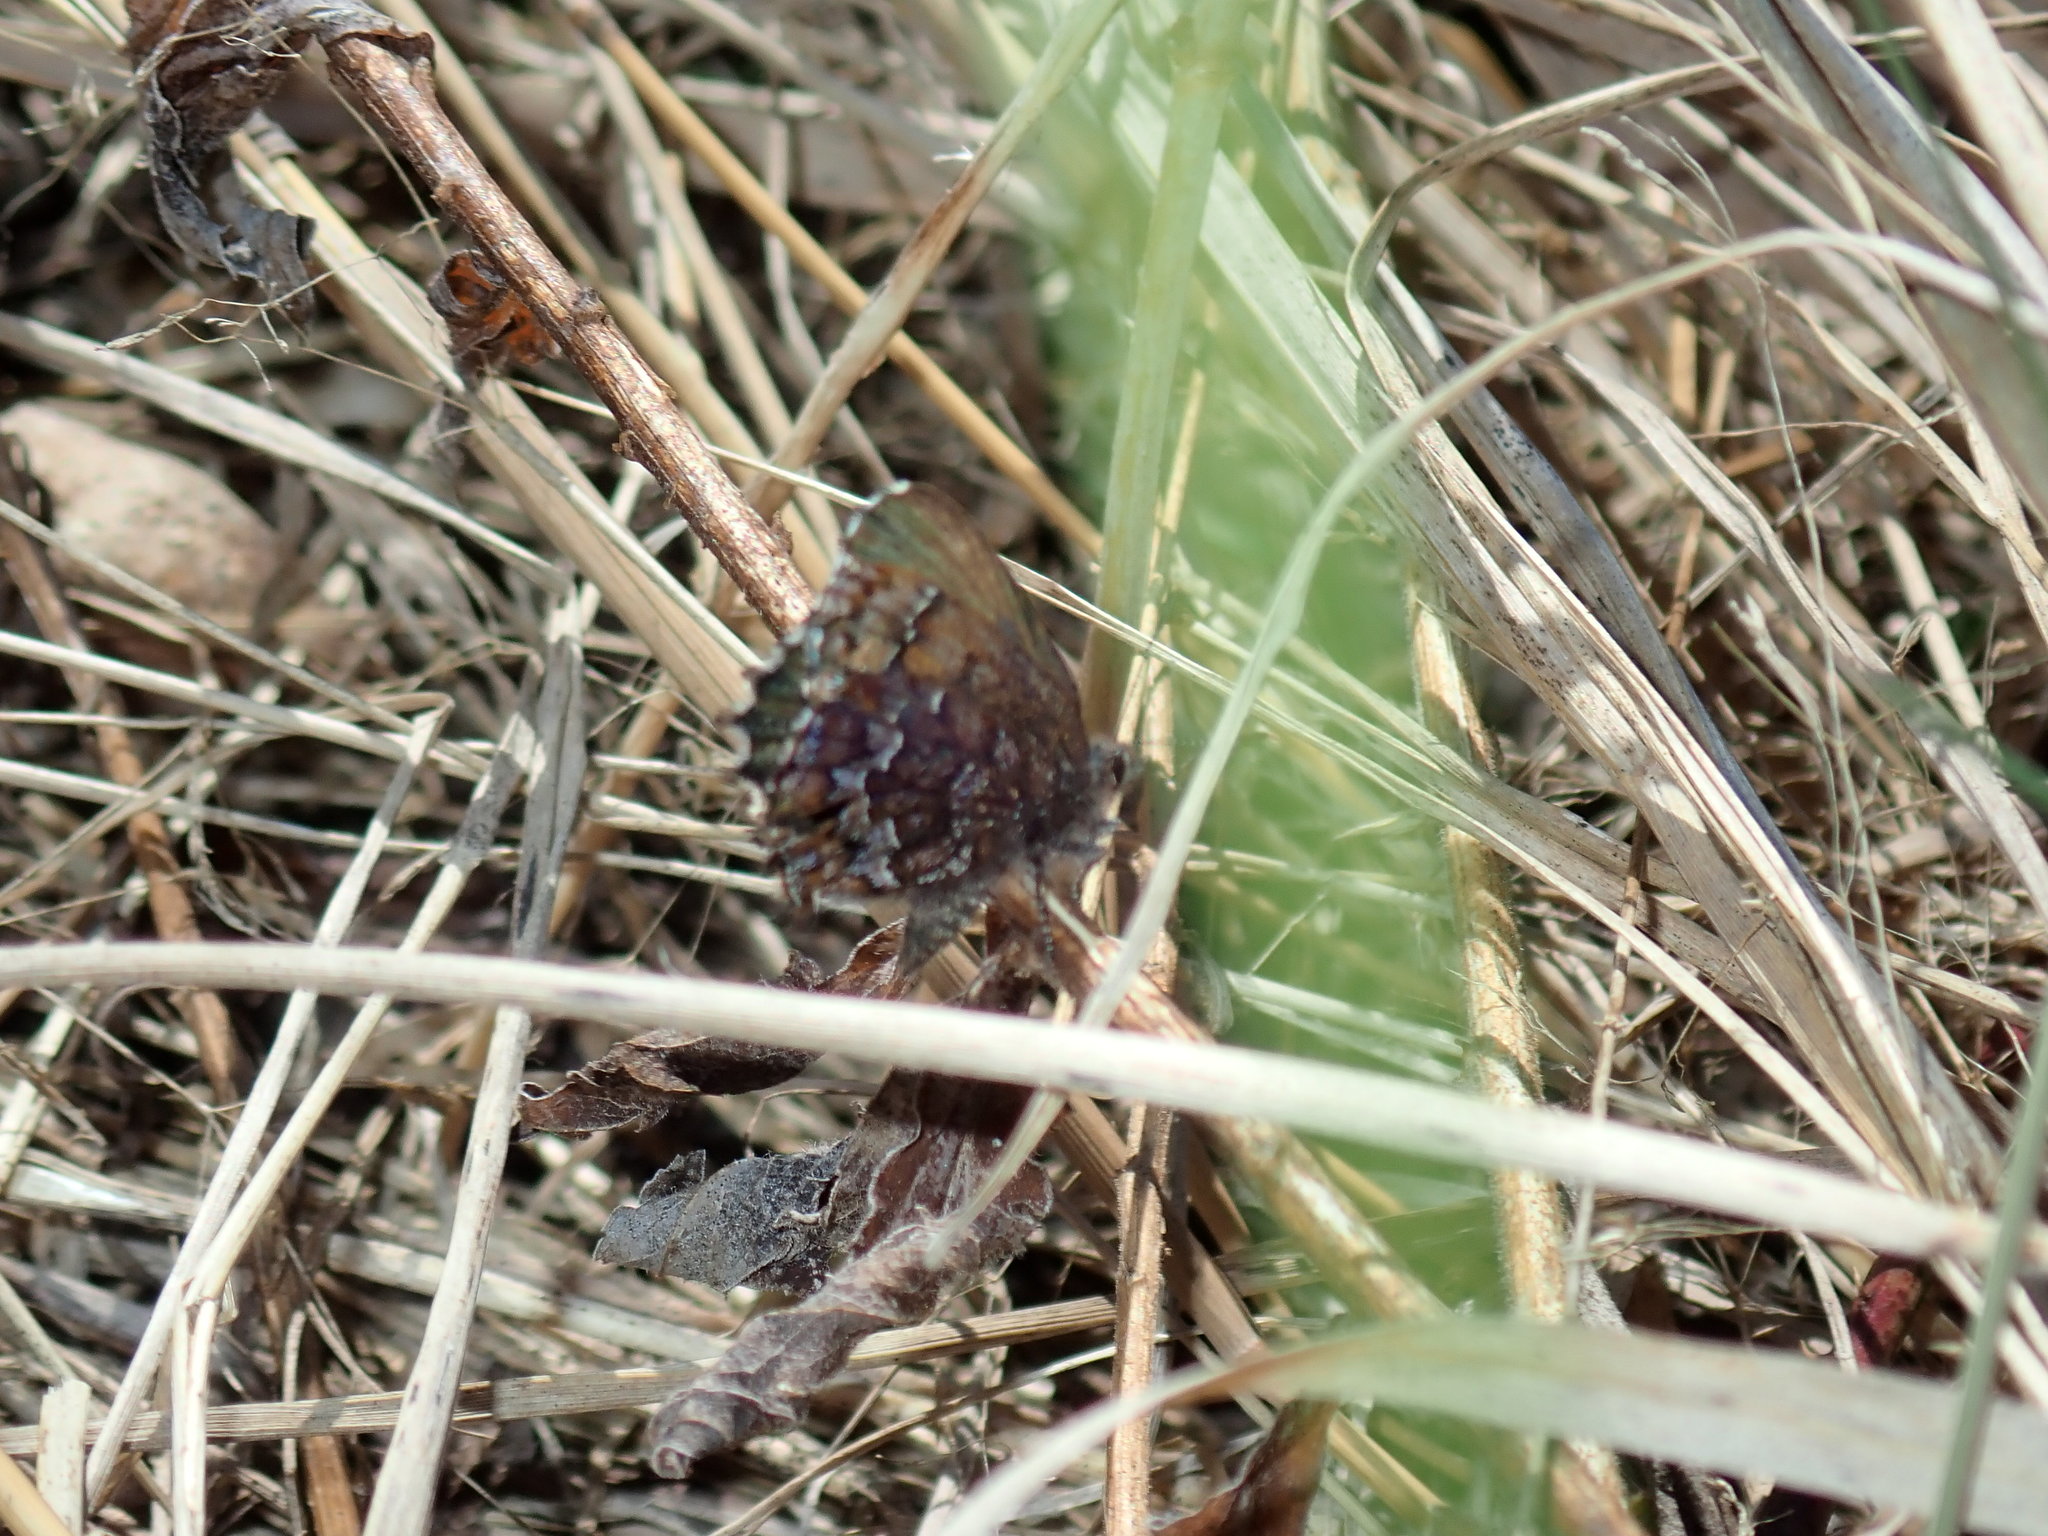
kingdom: Animalia
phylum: Arthropoda
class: Insecta
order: Lepidoptera
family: Lycaenidae
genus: Incisalia
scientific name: Incisalia niphon
